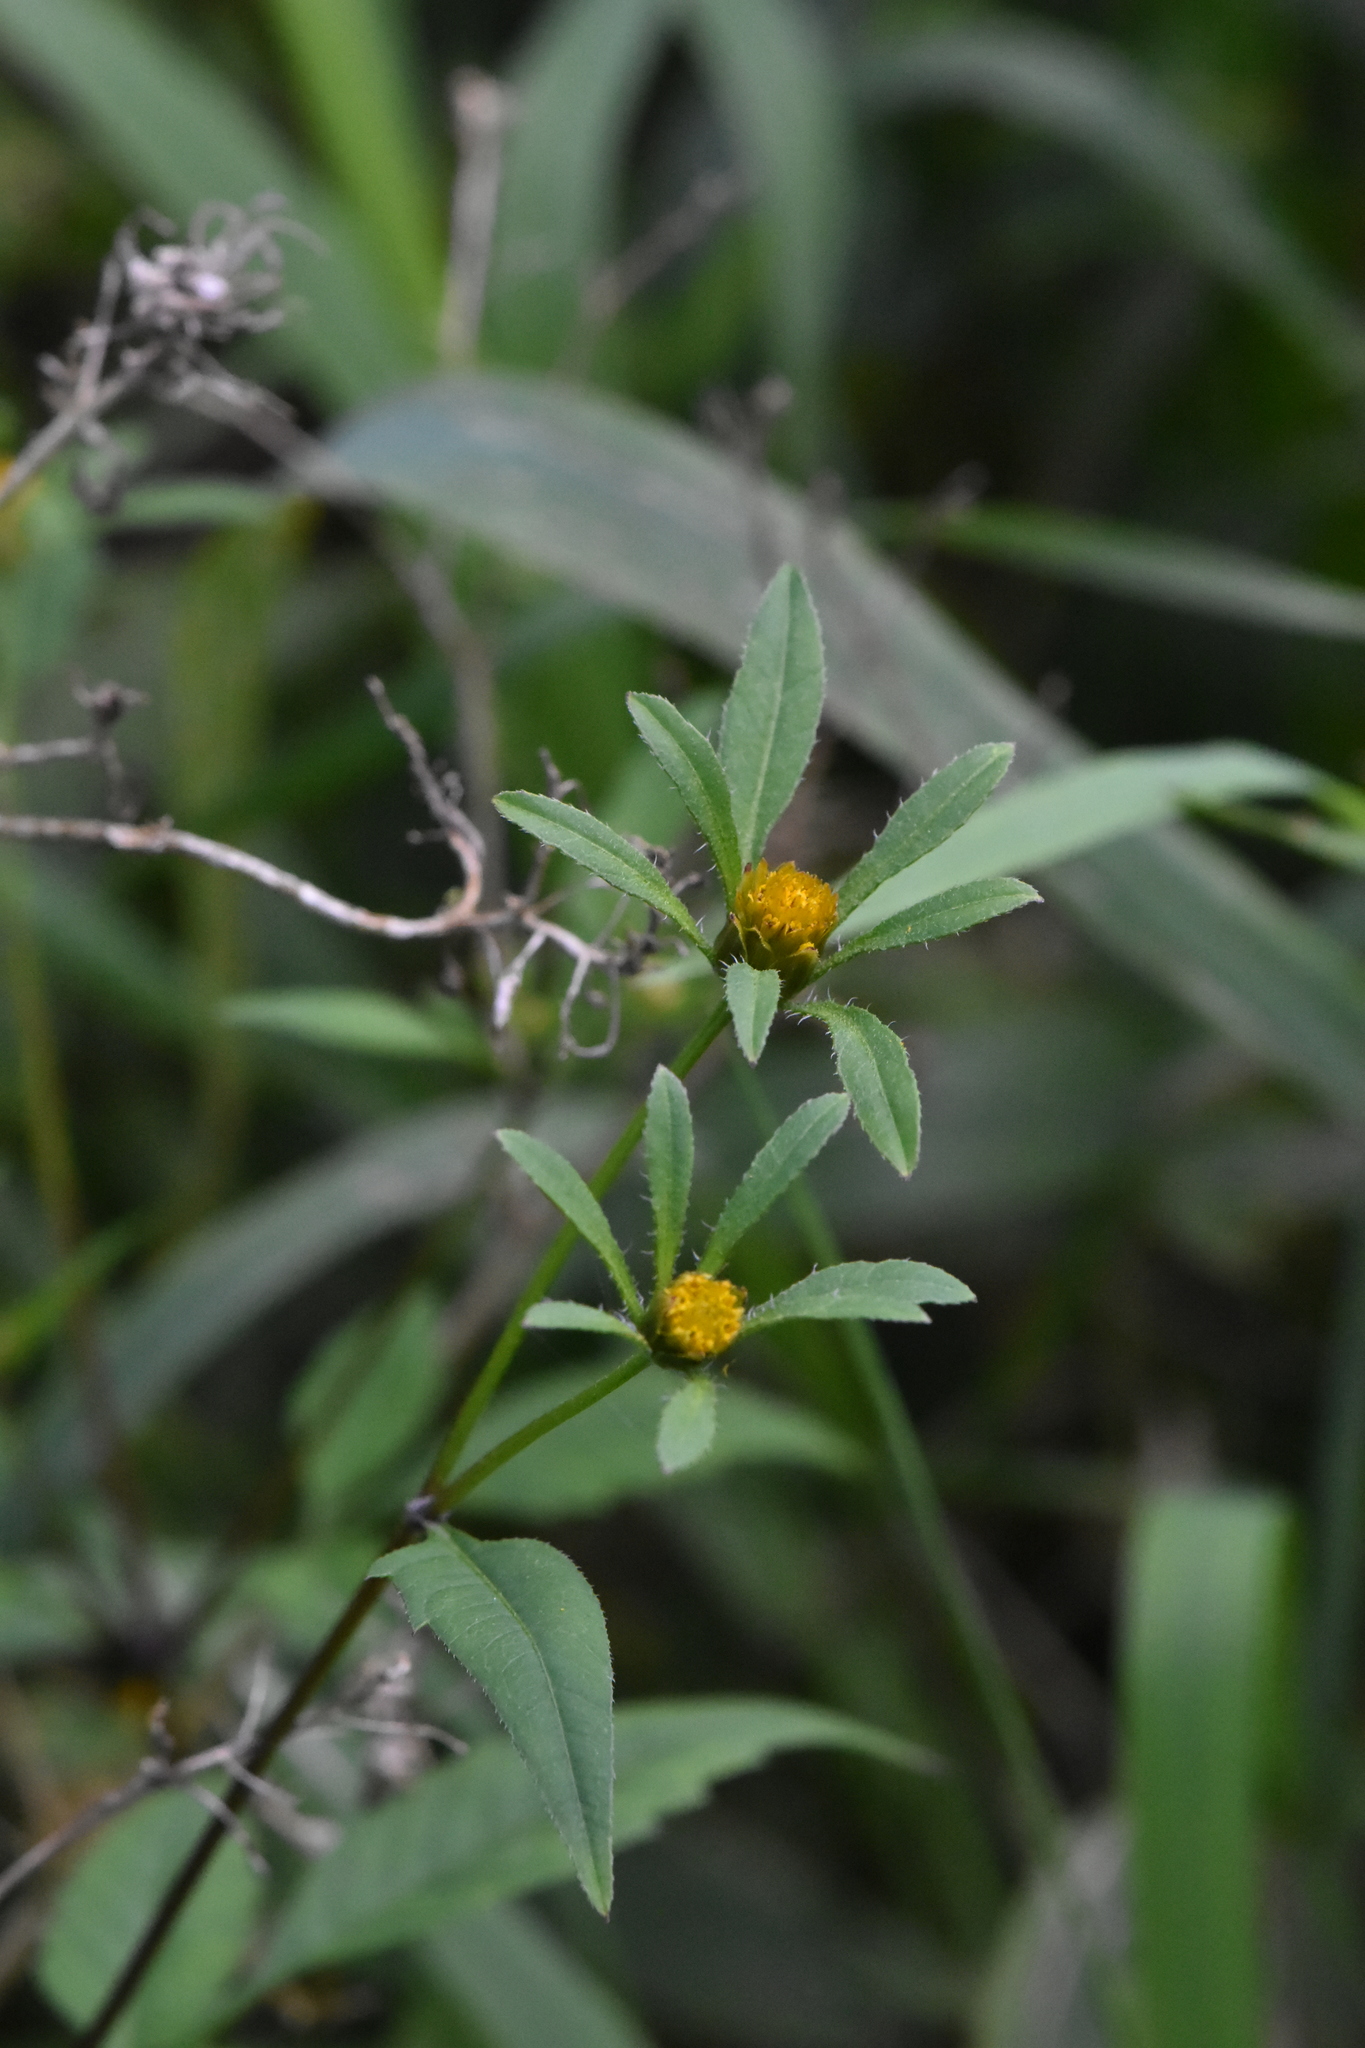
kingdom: Plantae
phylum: Tracheophyta
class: Magnoliopsida
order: Asterales
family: Asteraceae
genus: Bidens
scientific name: Bidens frondosa
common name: Beggarticks
